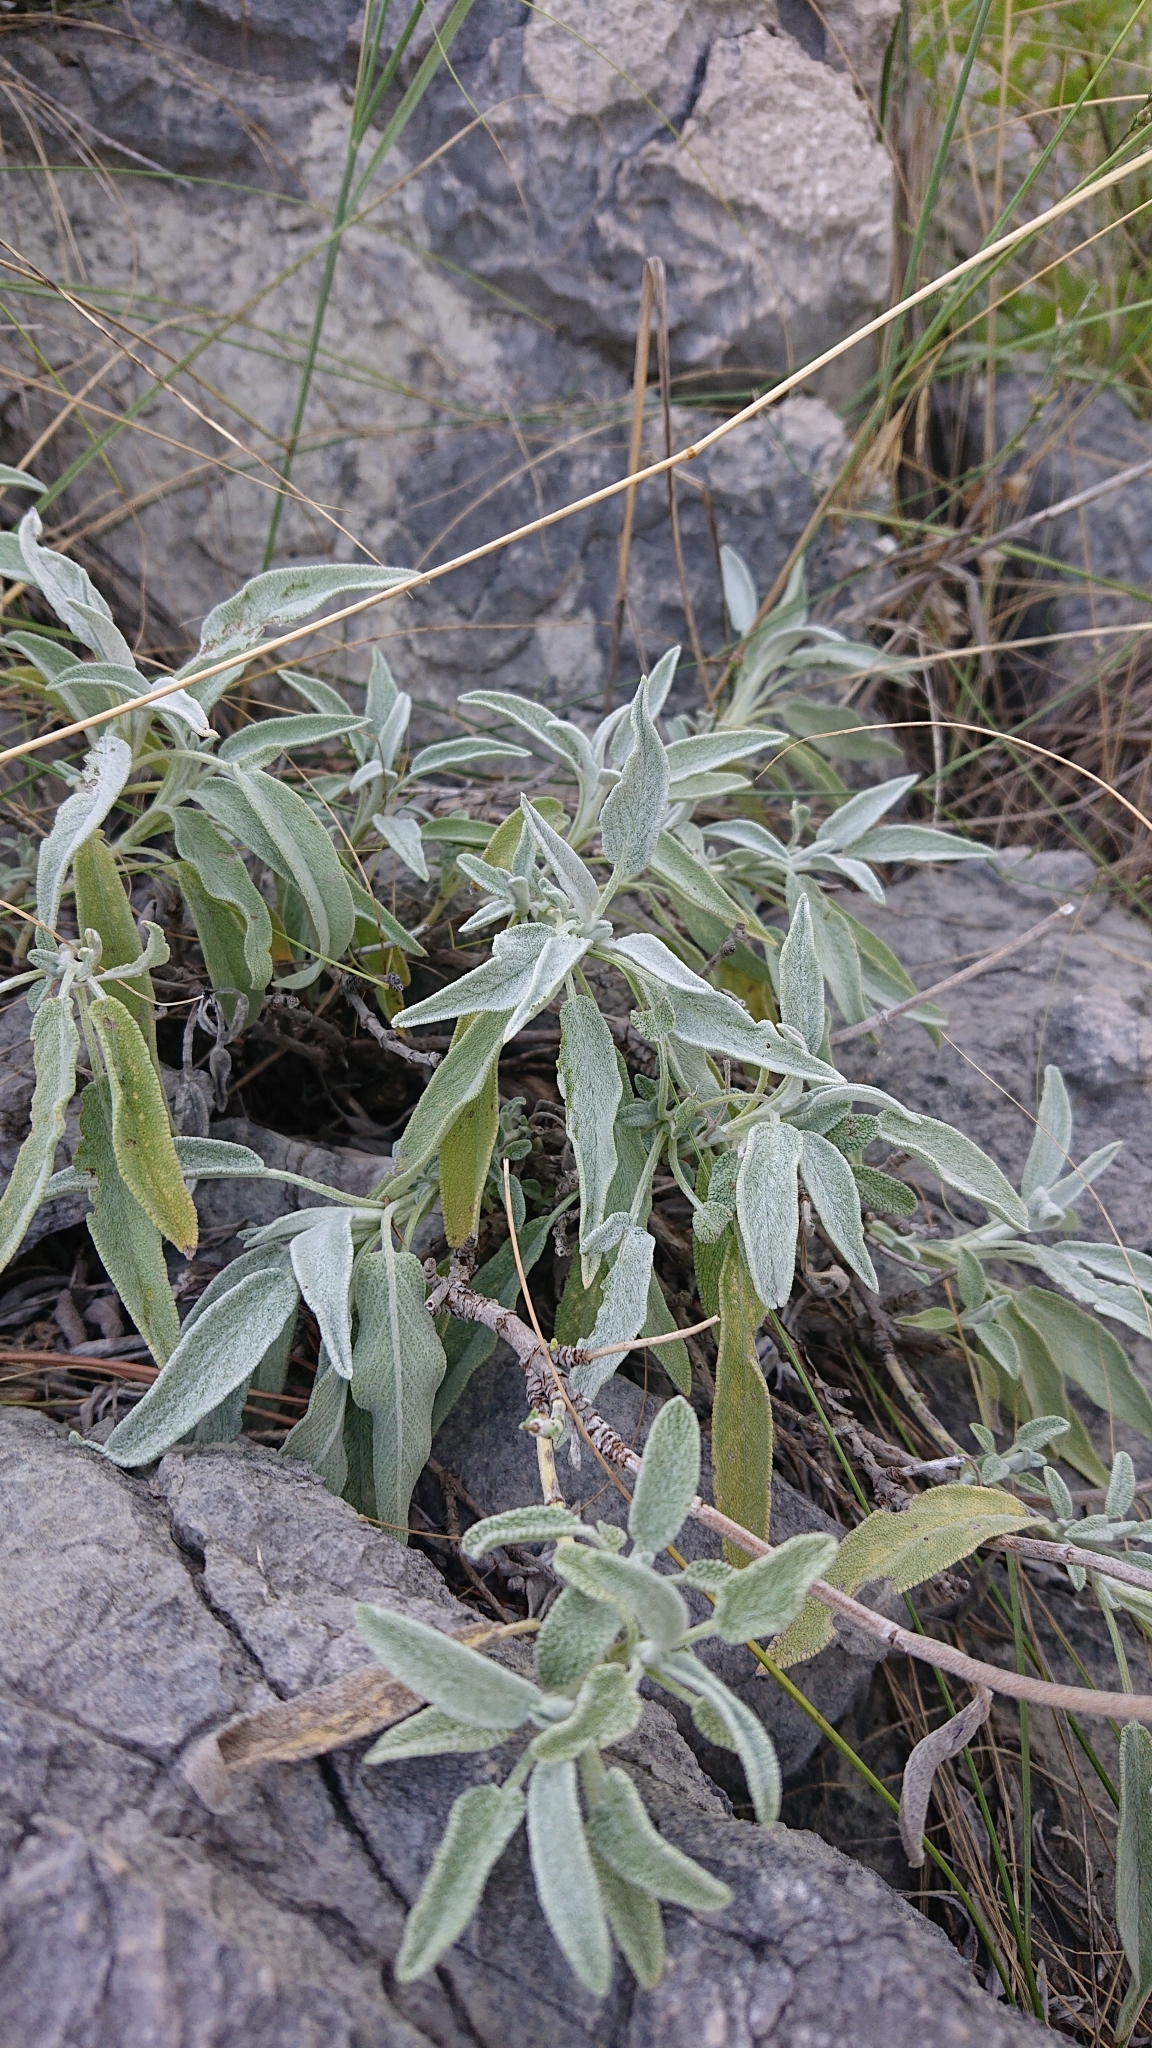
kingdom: Plantae
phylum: Tracheophyta
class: Magnoliopsida
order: Lamiales
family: Lamiaceae
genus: Salvia
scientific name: Salvia officinalis
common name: Sage
